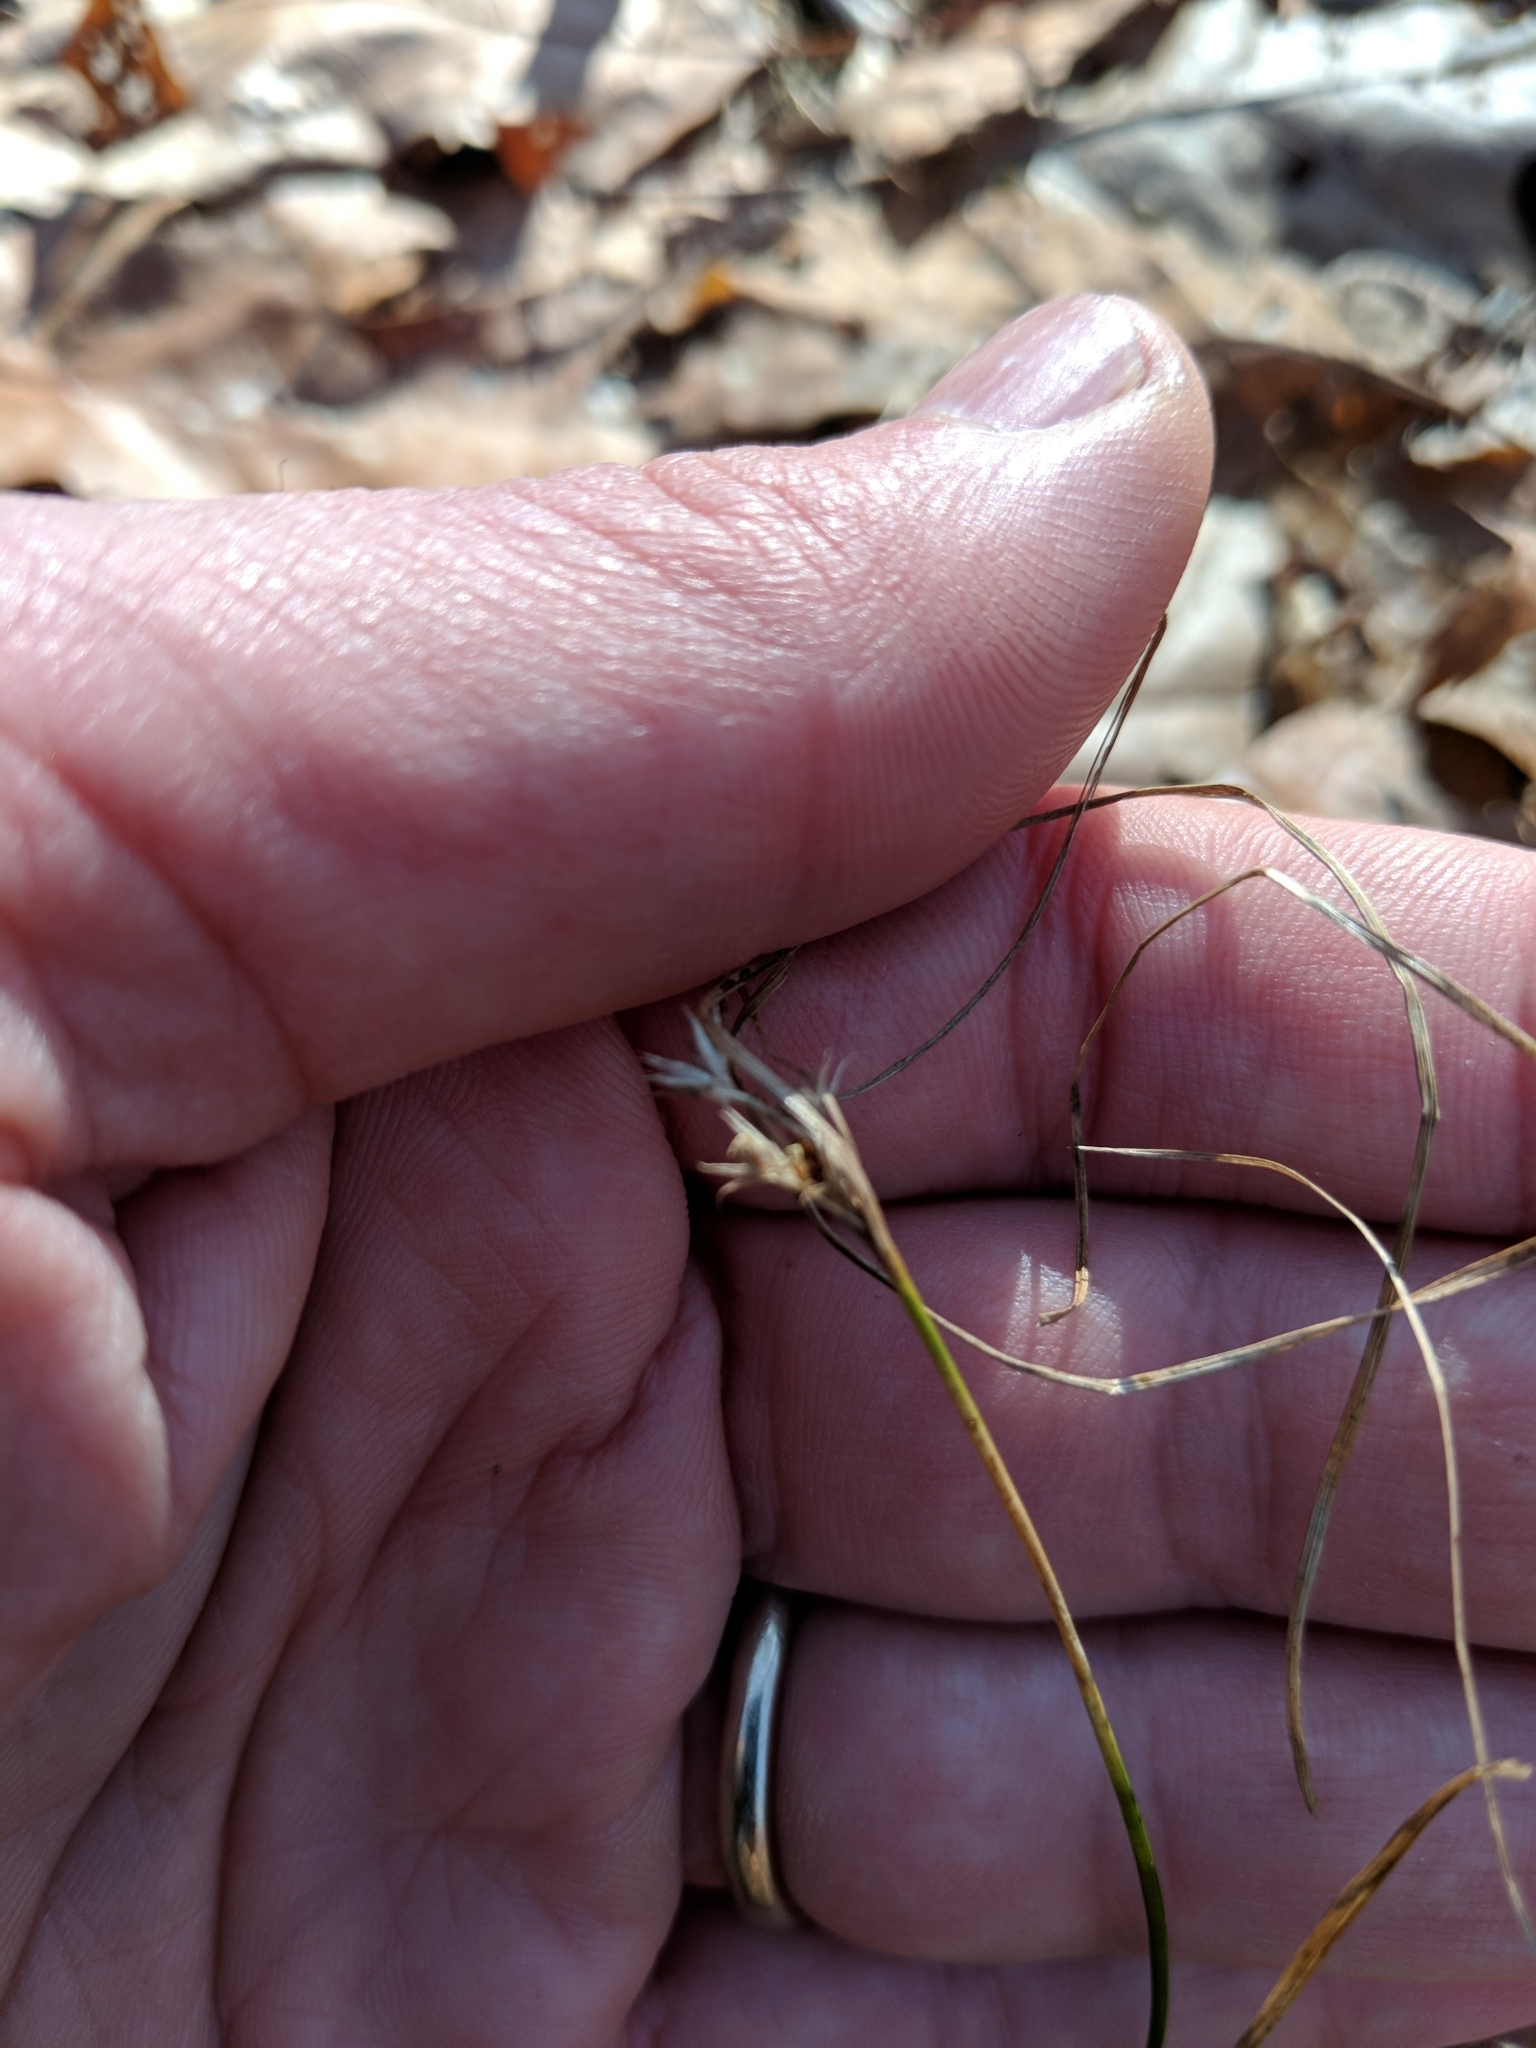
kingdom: Plantae
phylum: Tracheophyta
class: Liliopsida
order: Poales
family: Juncaceae
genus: Juncus
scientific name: Juncus tenuis
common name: Slender rush
